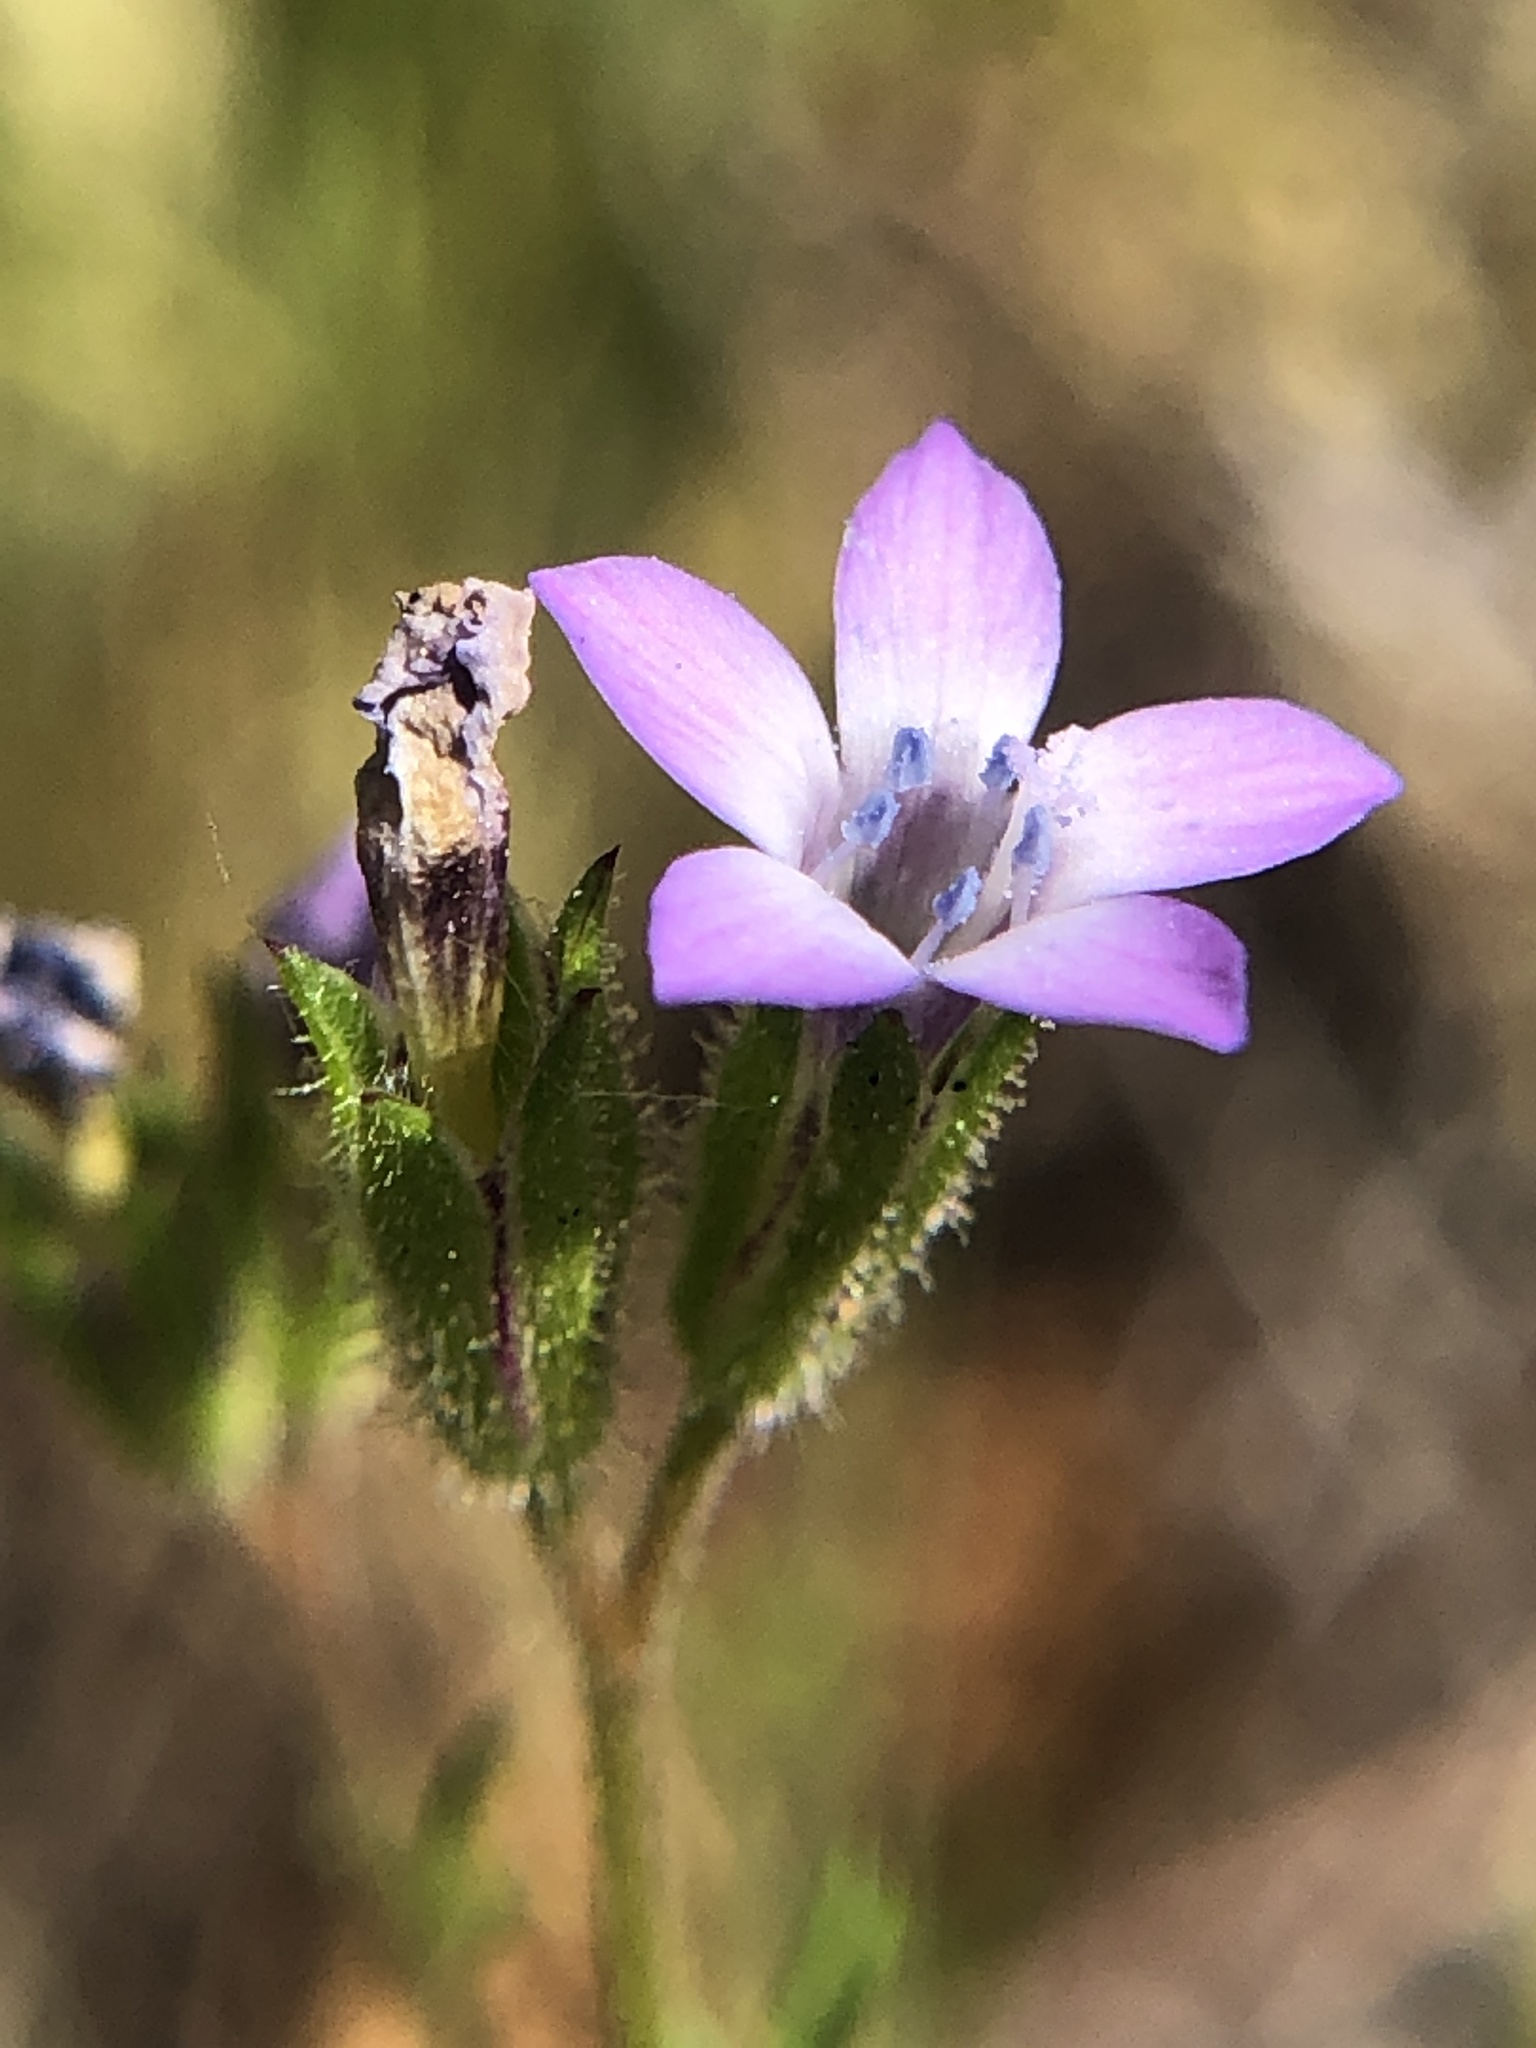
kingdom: Plantae
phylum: Tracheophyta
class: Magnoliopsida
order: Ericales
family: Polemoniaceae
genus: Gilia
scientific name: Gilia clivorum
